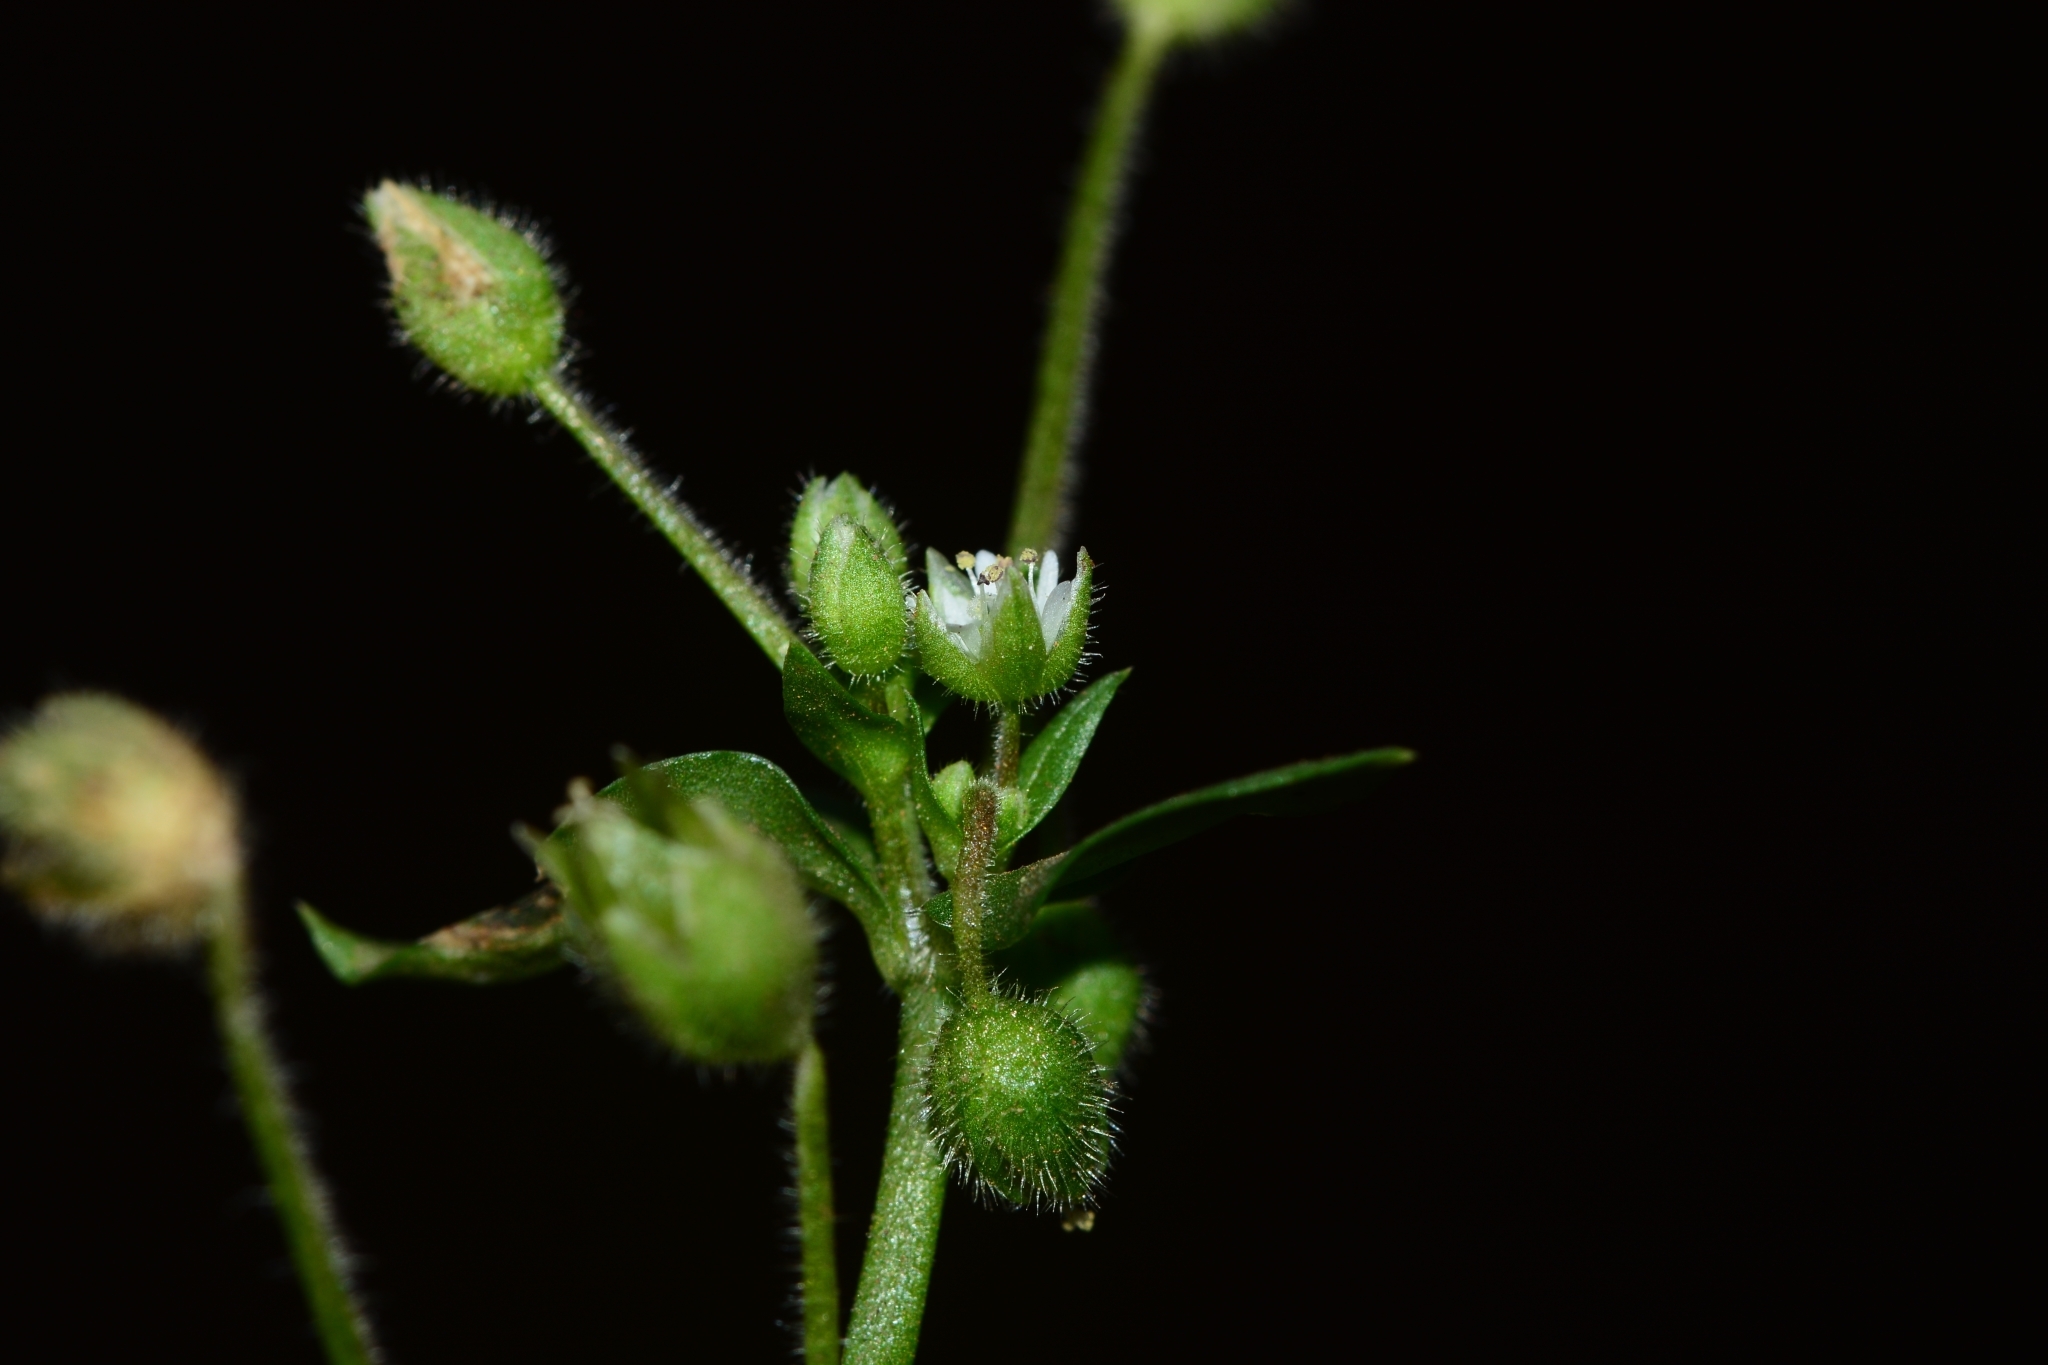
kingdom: Plantae
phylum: Tracheophyta
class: Magnoliopsida
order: Caryophyllales
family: Caryophyllaceae
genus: Stellaria
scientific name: Stellaria media
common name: Common chickweed
